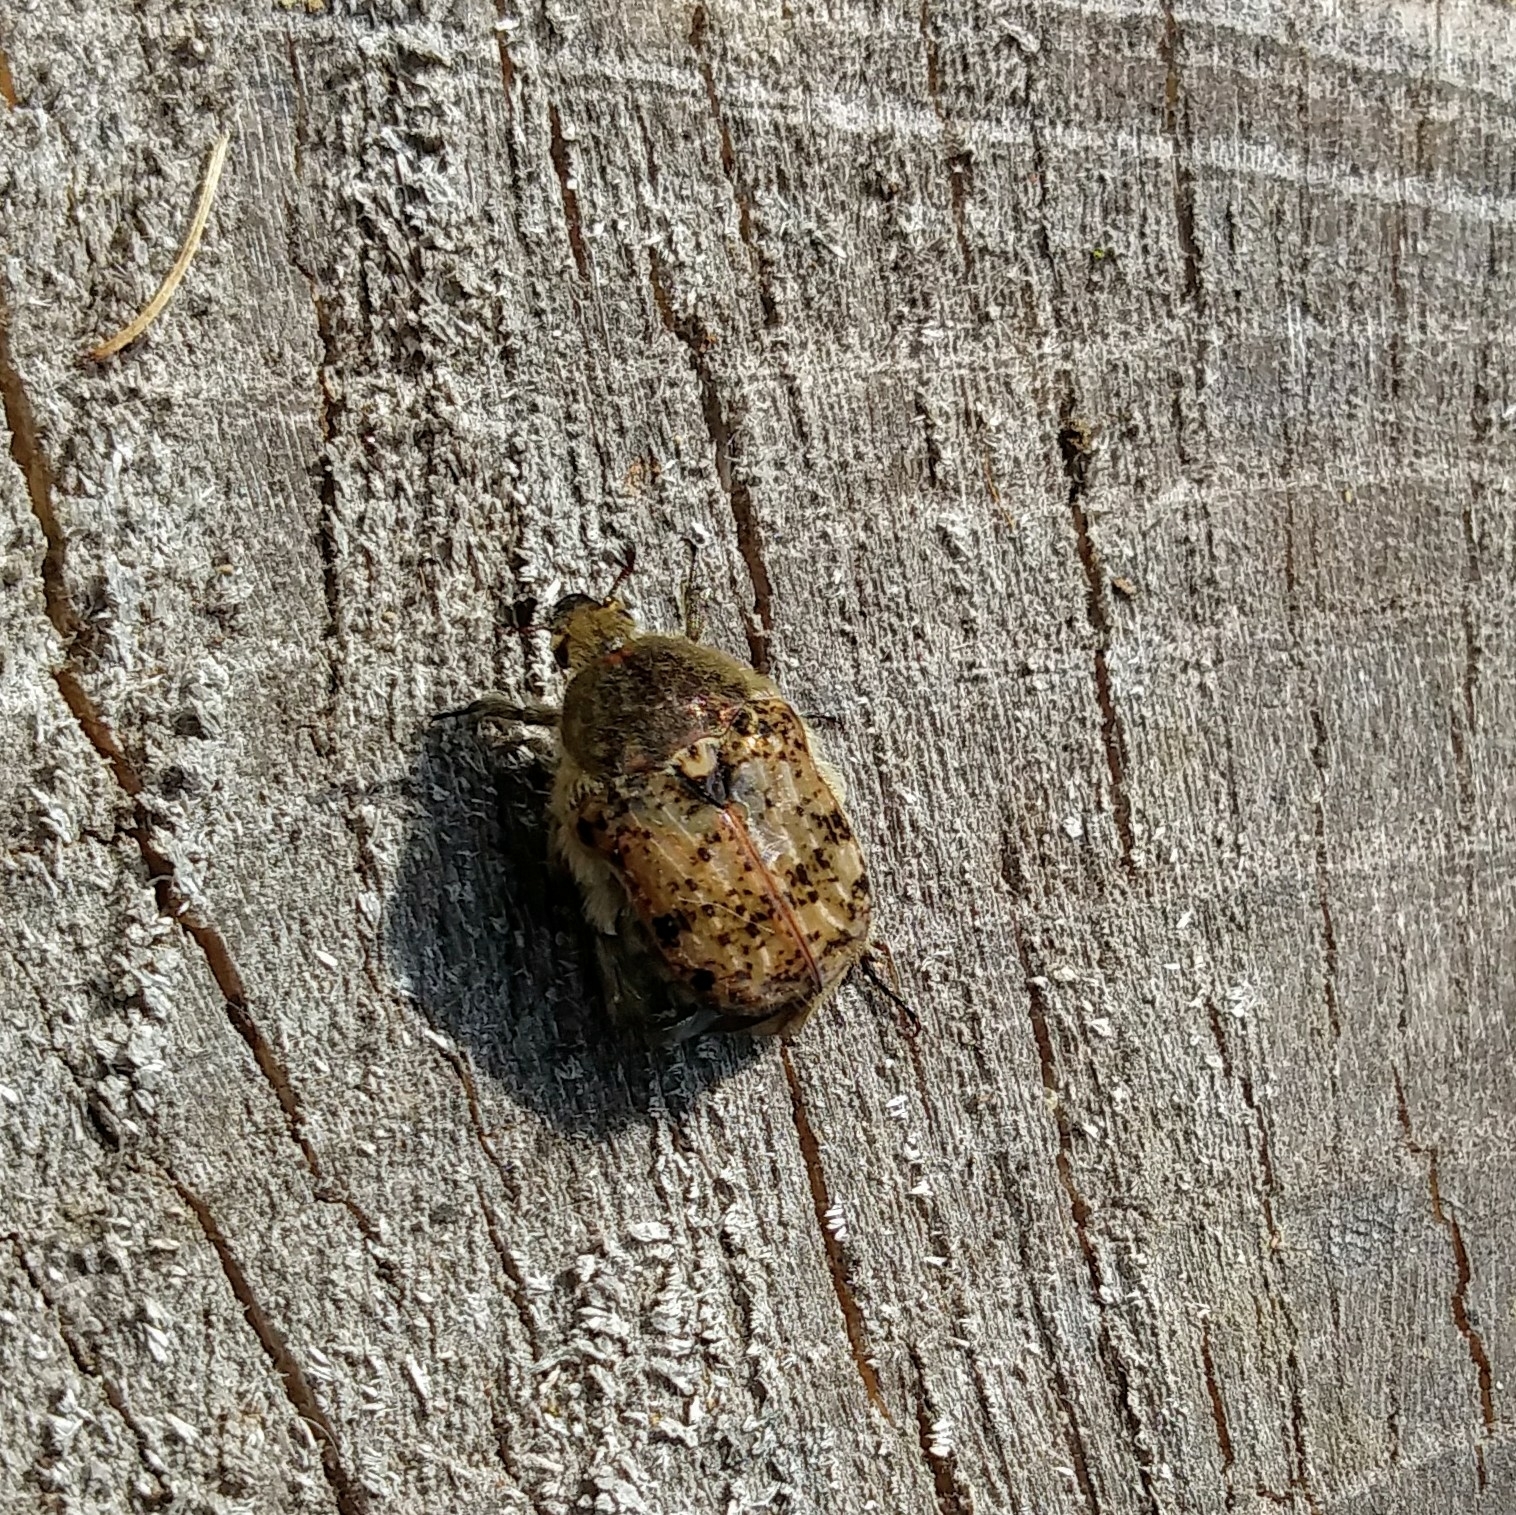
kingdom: Animalia
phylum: Arthropoda
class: Insecta
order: Coleoptera
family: Scarabaeidae
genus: Euphoria
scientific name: Euphoria inda
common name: Bumble flower beetle
